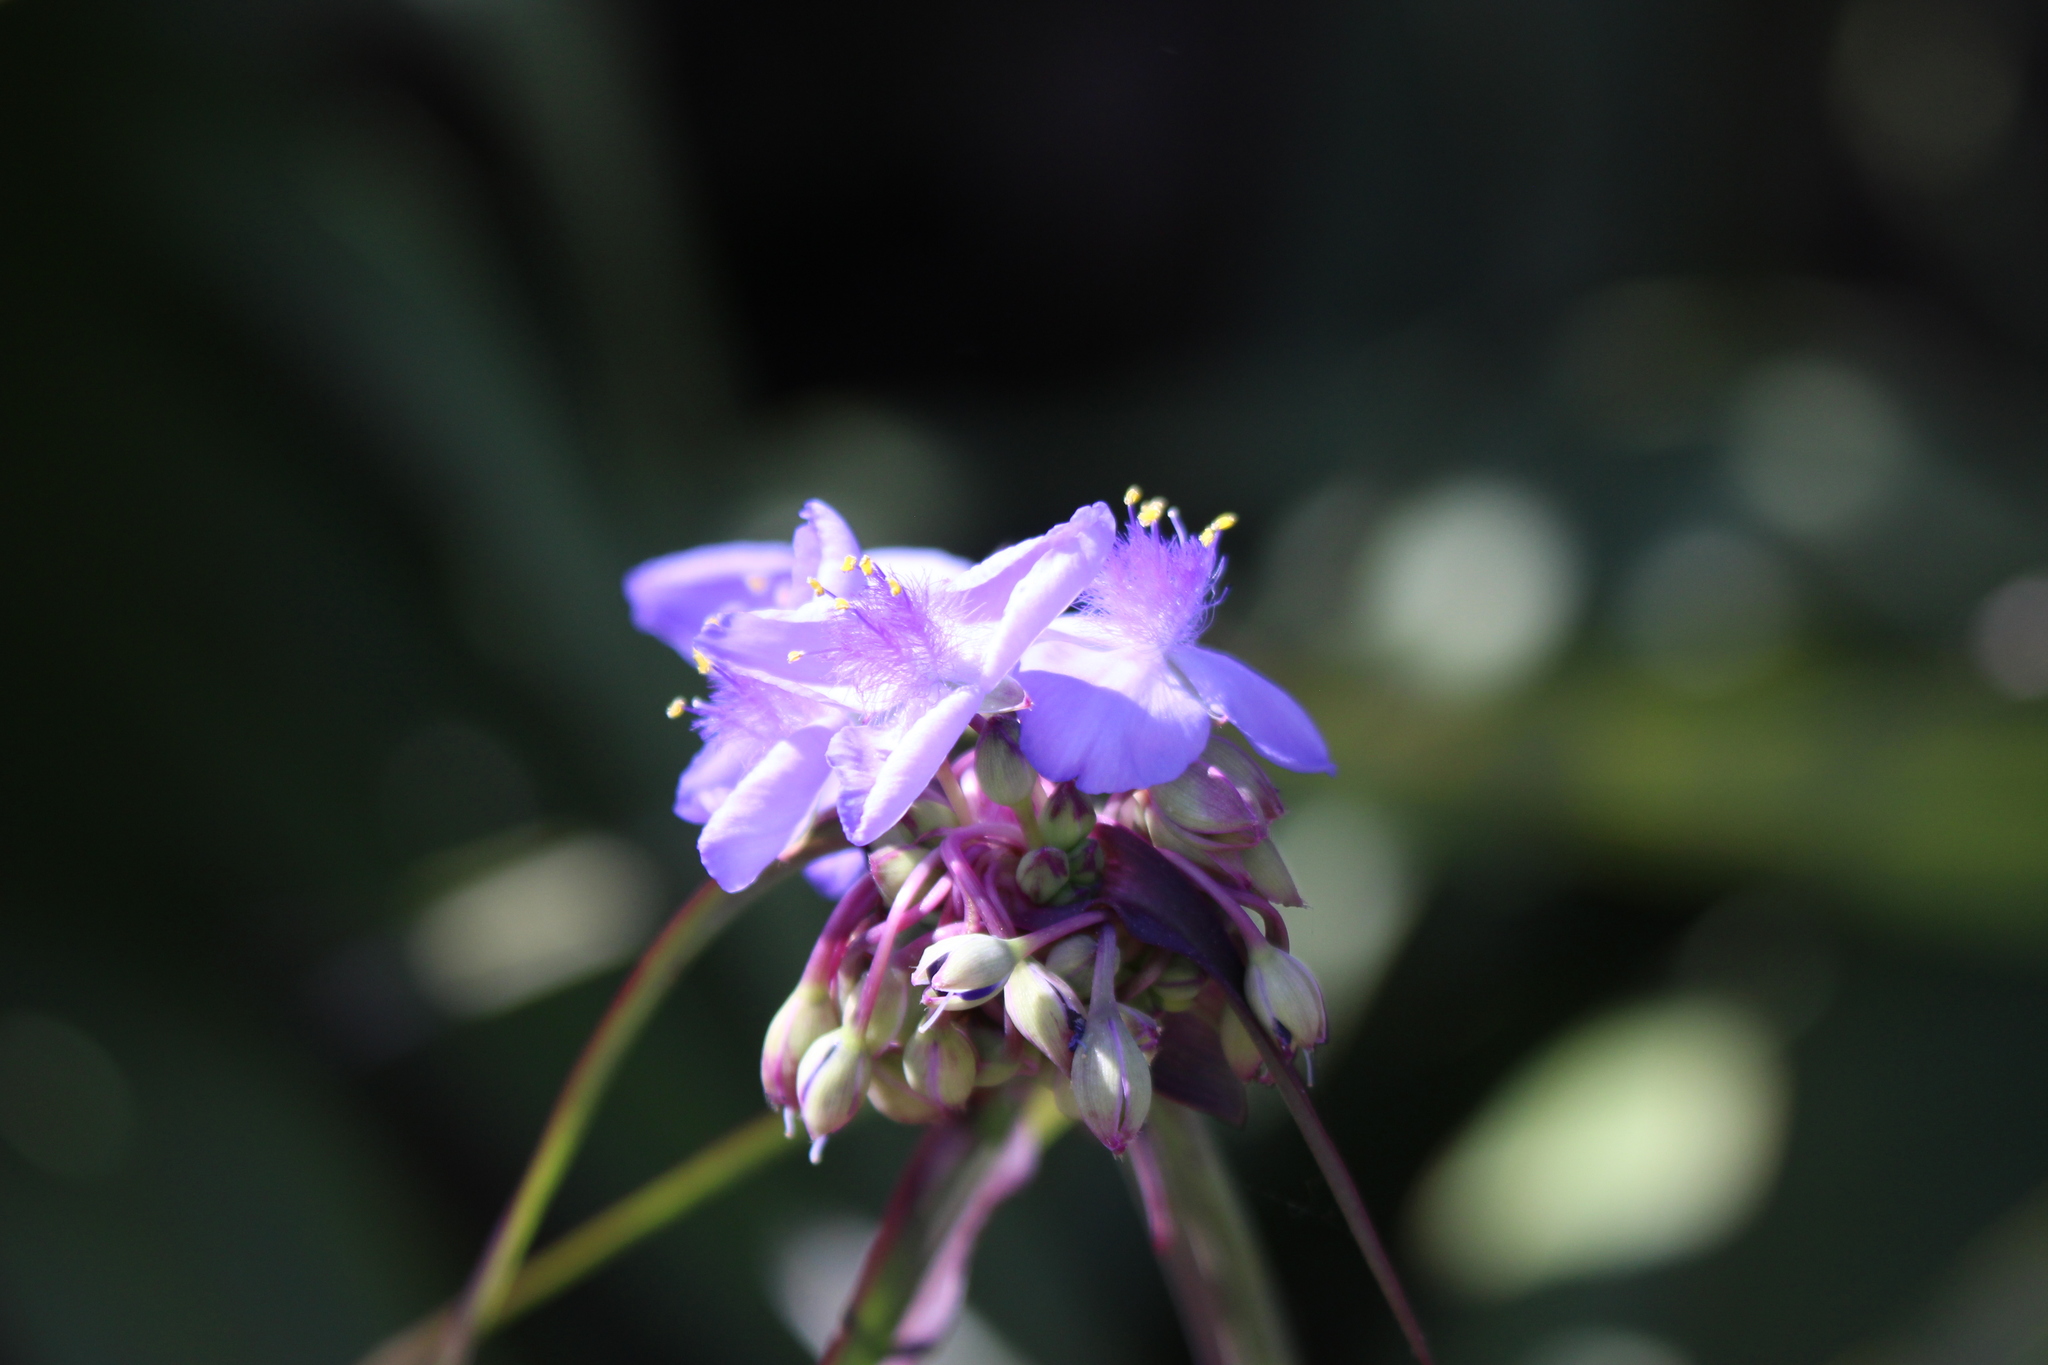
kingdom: Plantae
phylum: Tracheophyta
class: Liliopsida
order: Commelinales
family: Commelinaceae
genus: Tradescantia
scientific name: Tradescantia ohiensis
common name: Ohio spiderwort
